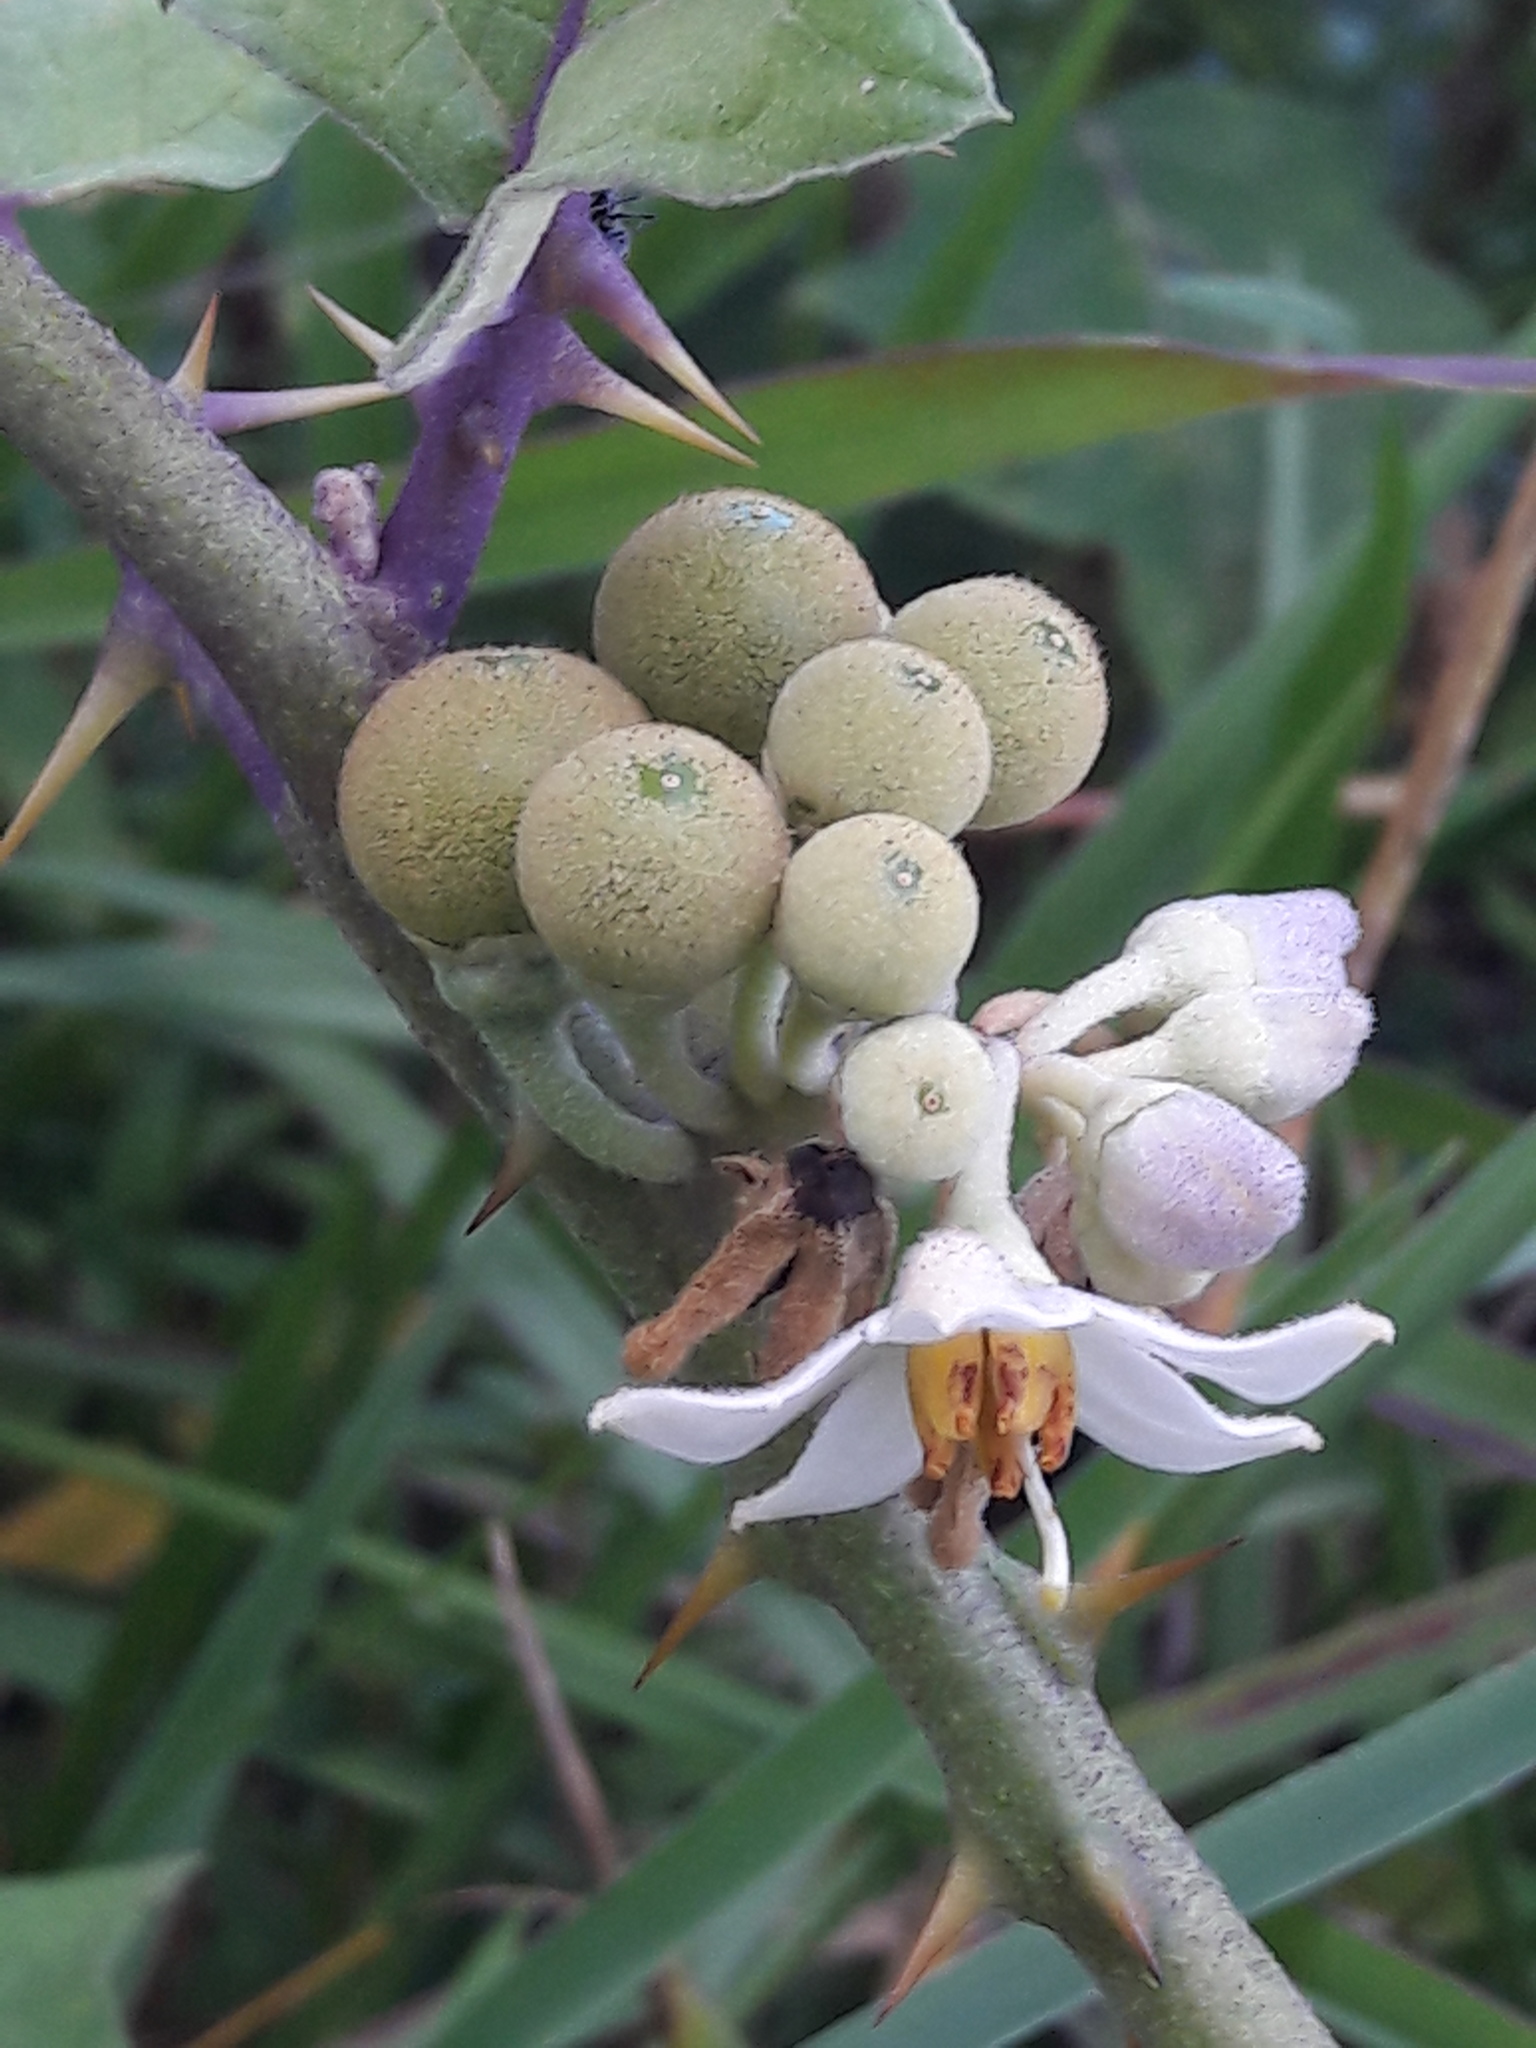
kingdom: Plantae
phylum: Tracheophyta
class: Magnoliopsida
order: Solanales
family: Solanaceae
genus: Solanum
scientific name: Solanum
